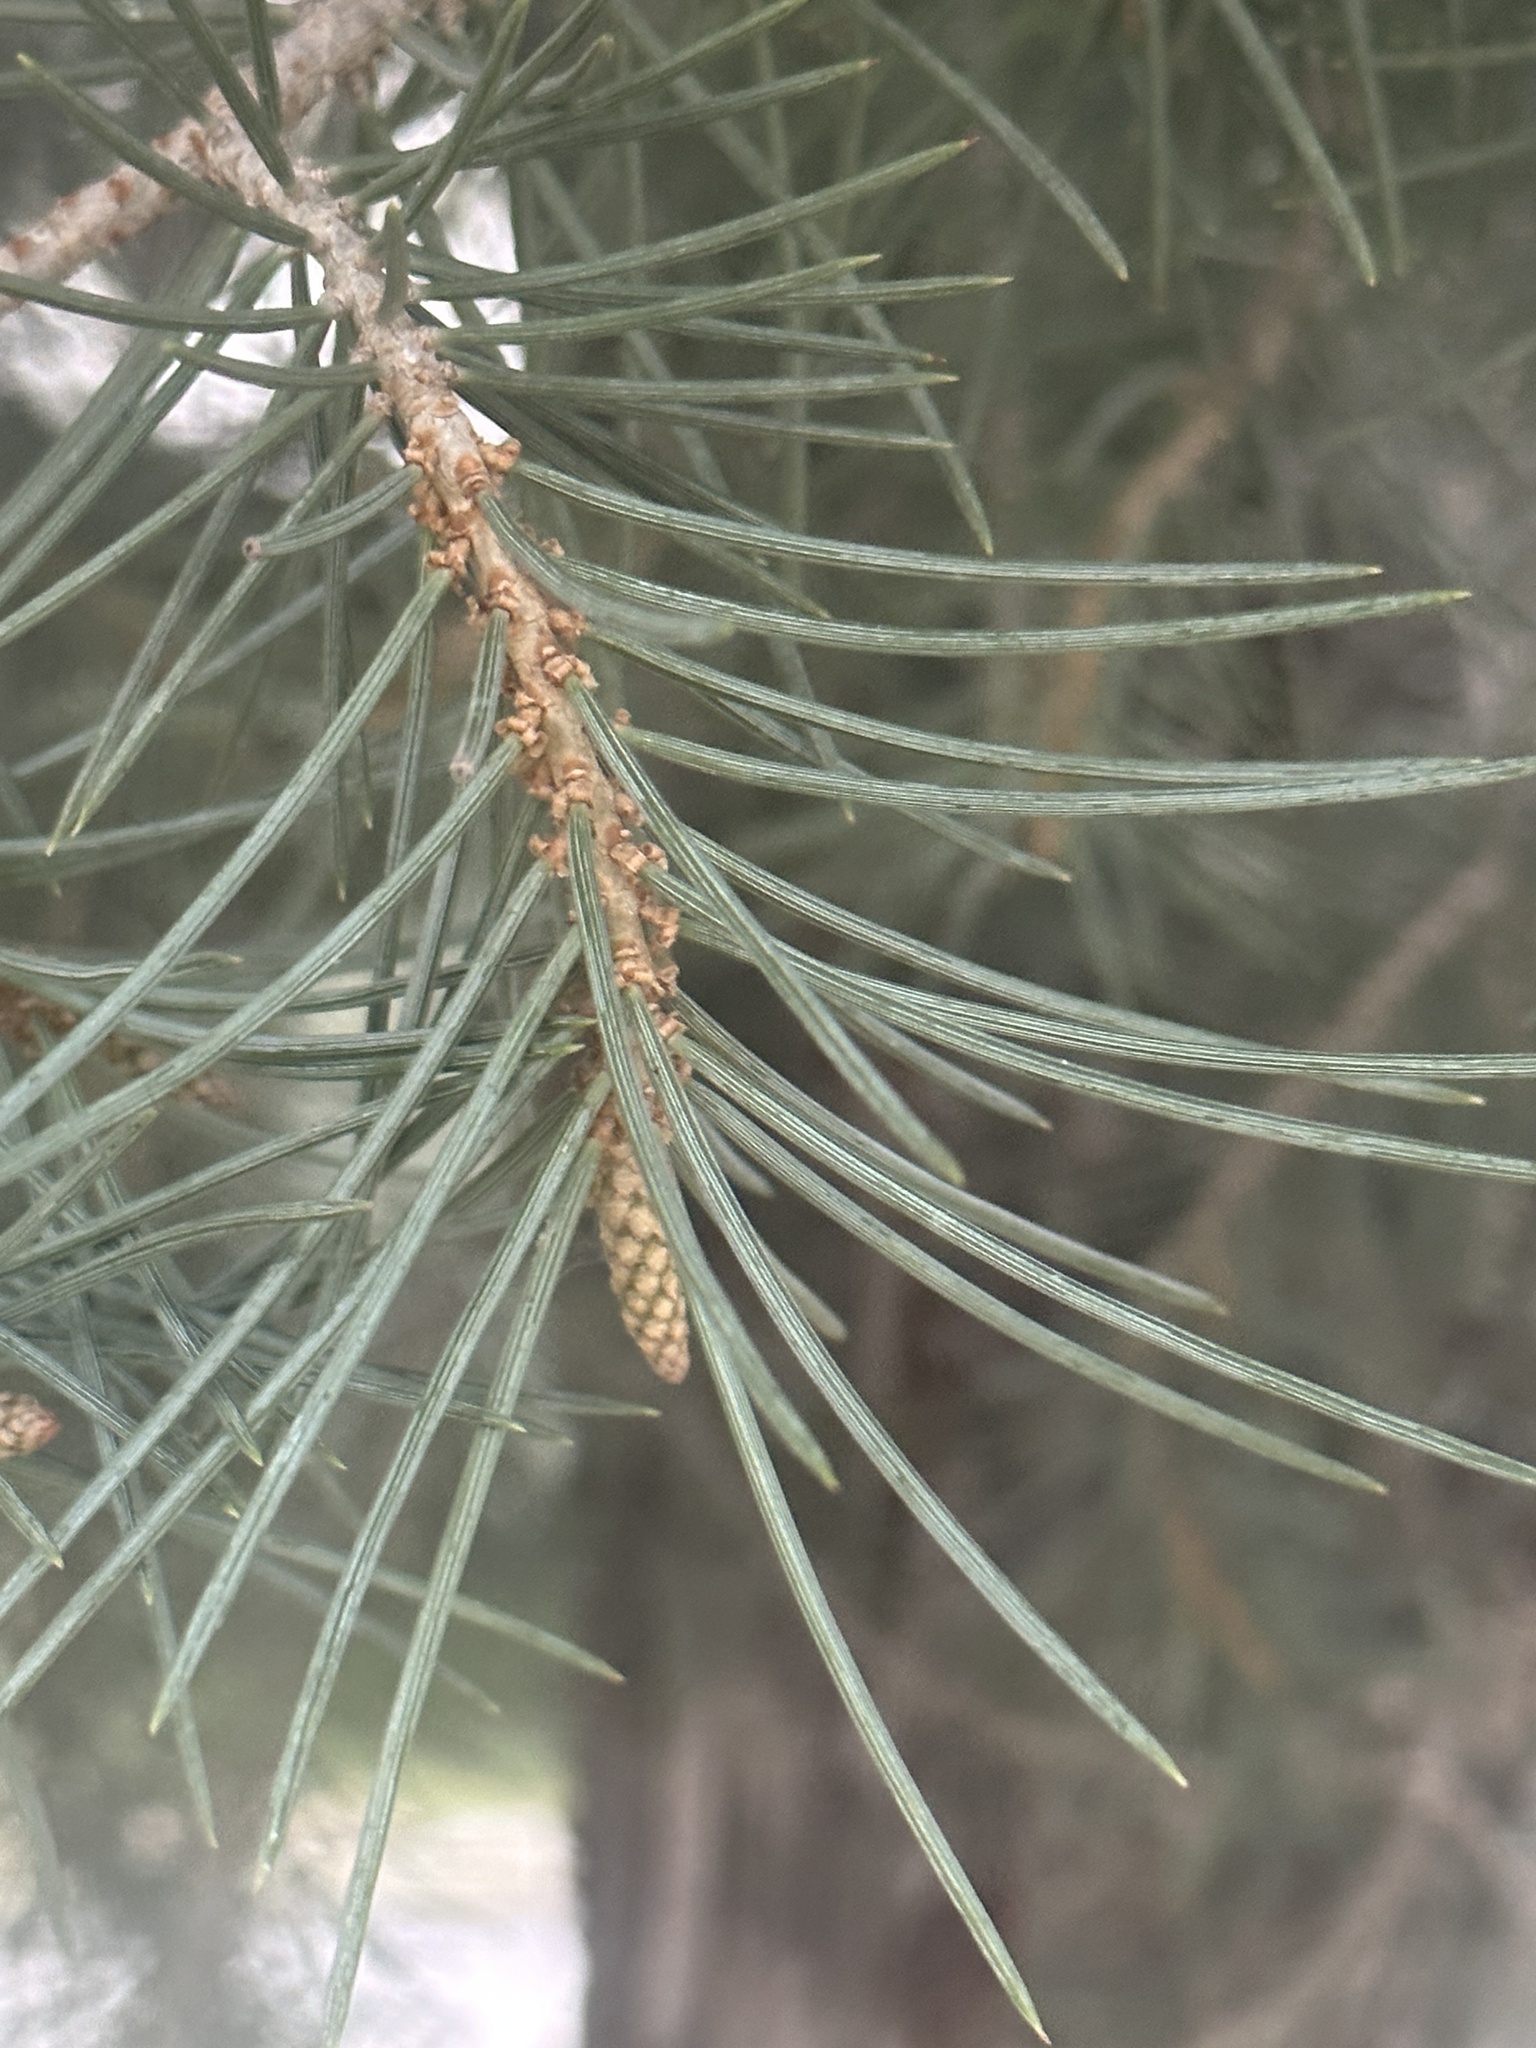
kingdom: Plantae
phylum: Tracheophyta
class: Pinopsida
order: Pinales
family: Pinaceae
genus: Pinus
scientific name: Pinus monophylla
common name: One-leaved nut pine
